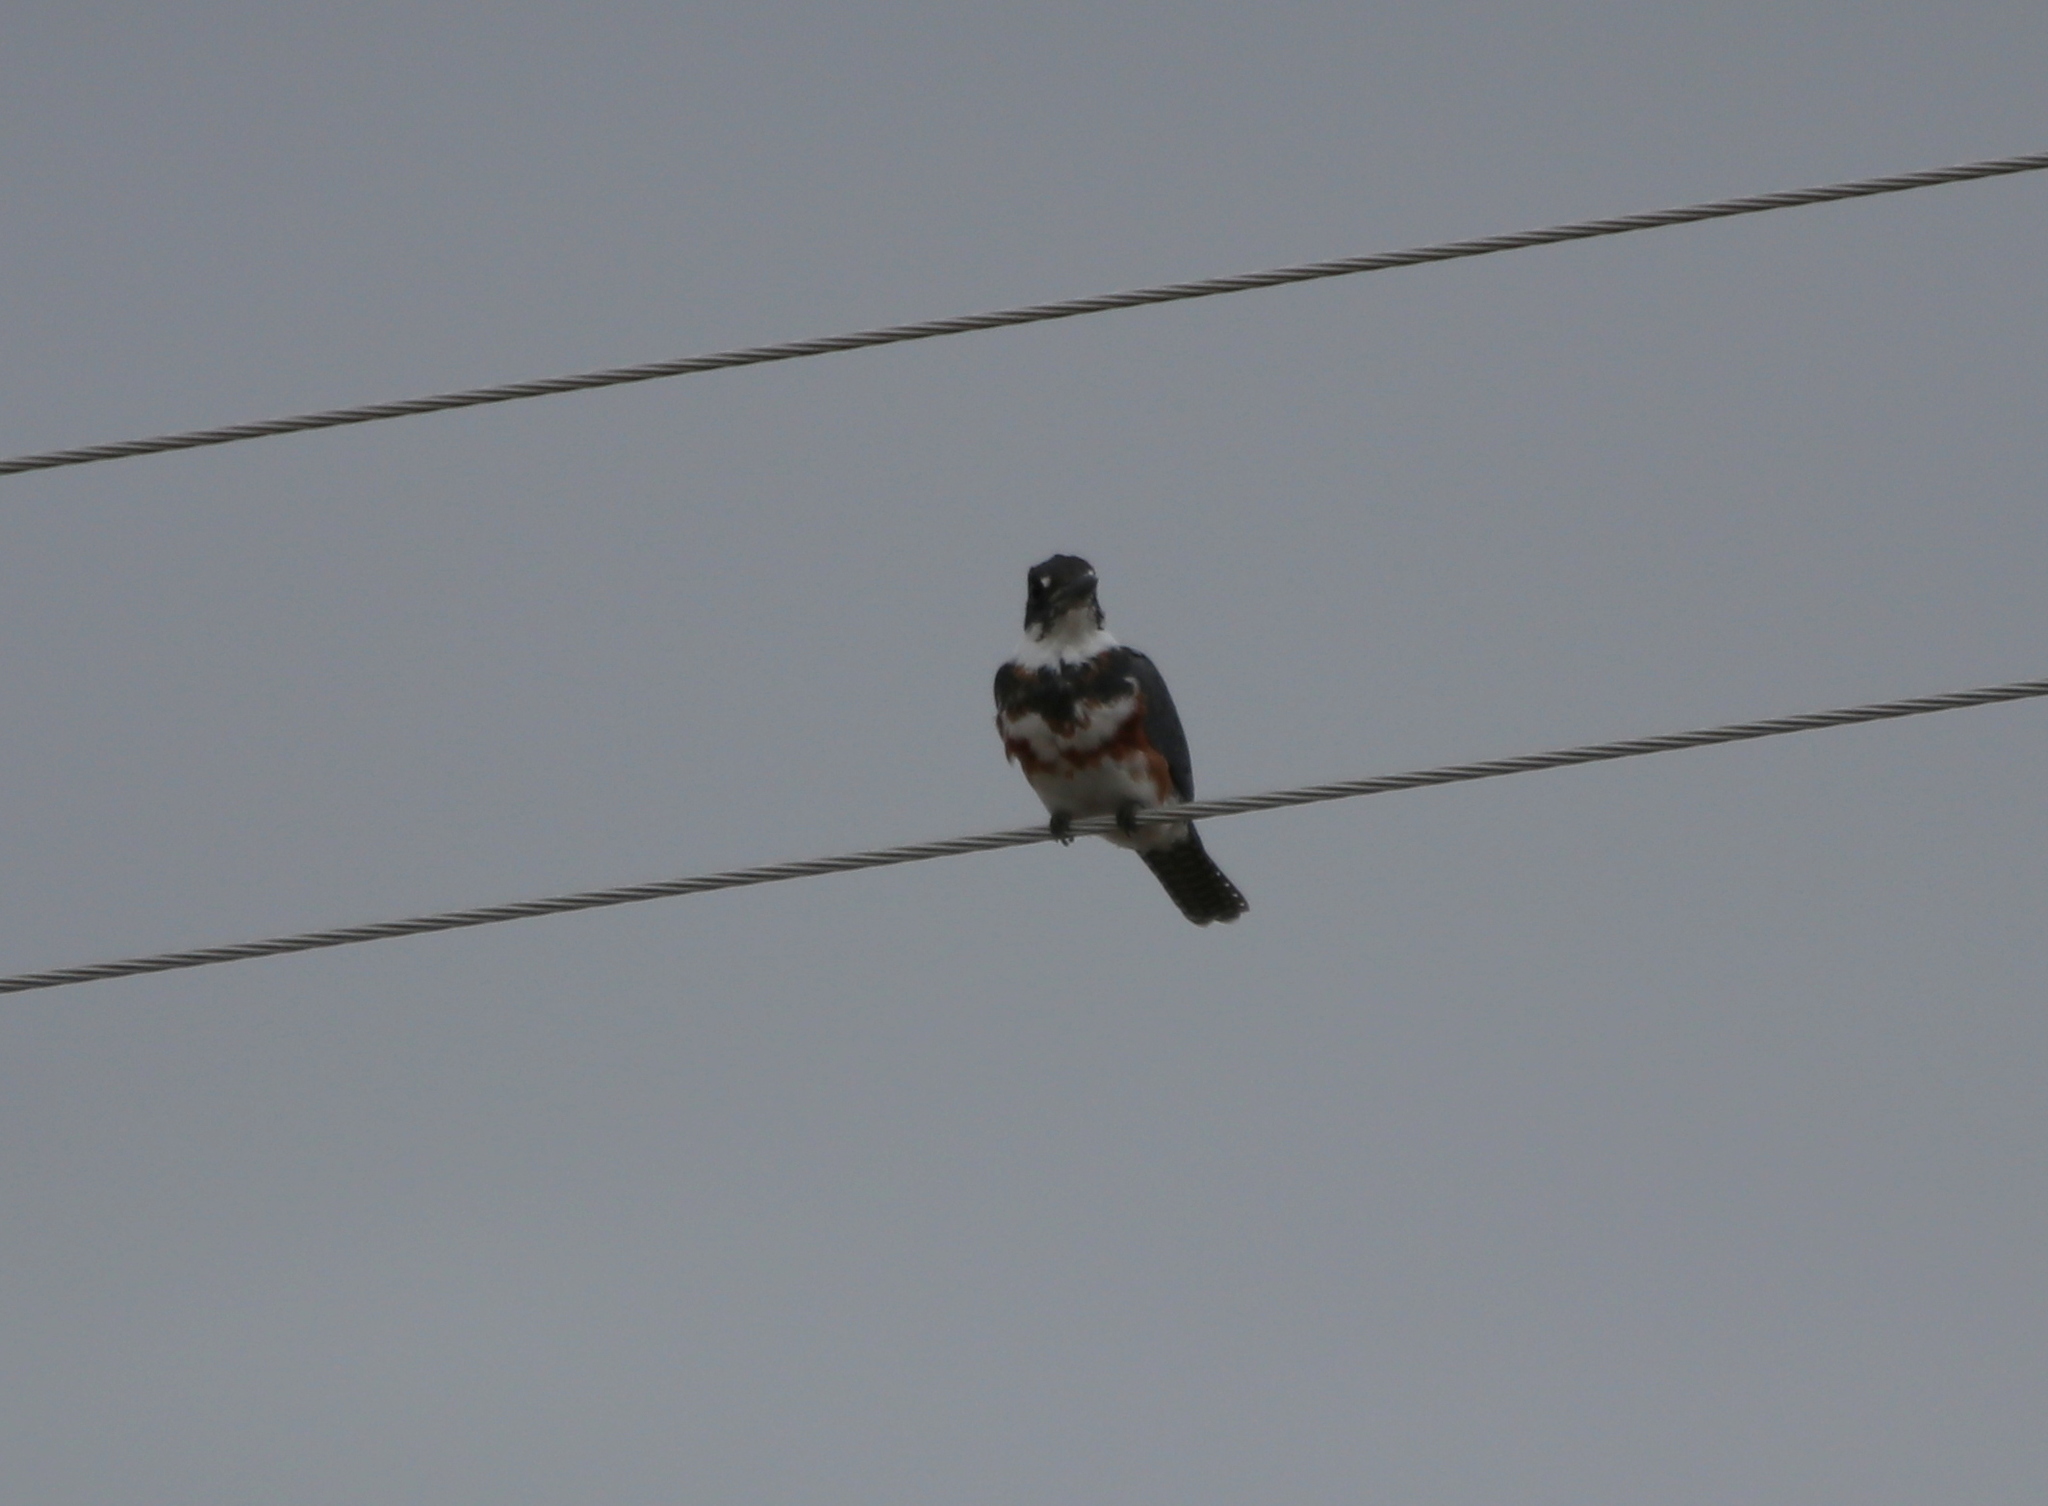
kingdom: Animalia
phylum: Chordata
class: Aves
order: Coraciiformes
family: Alcedinidae
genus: Megaceryle
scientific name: Megaceryle alcyon
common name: Belted kingfisher
